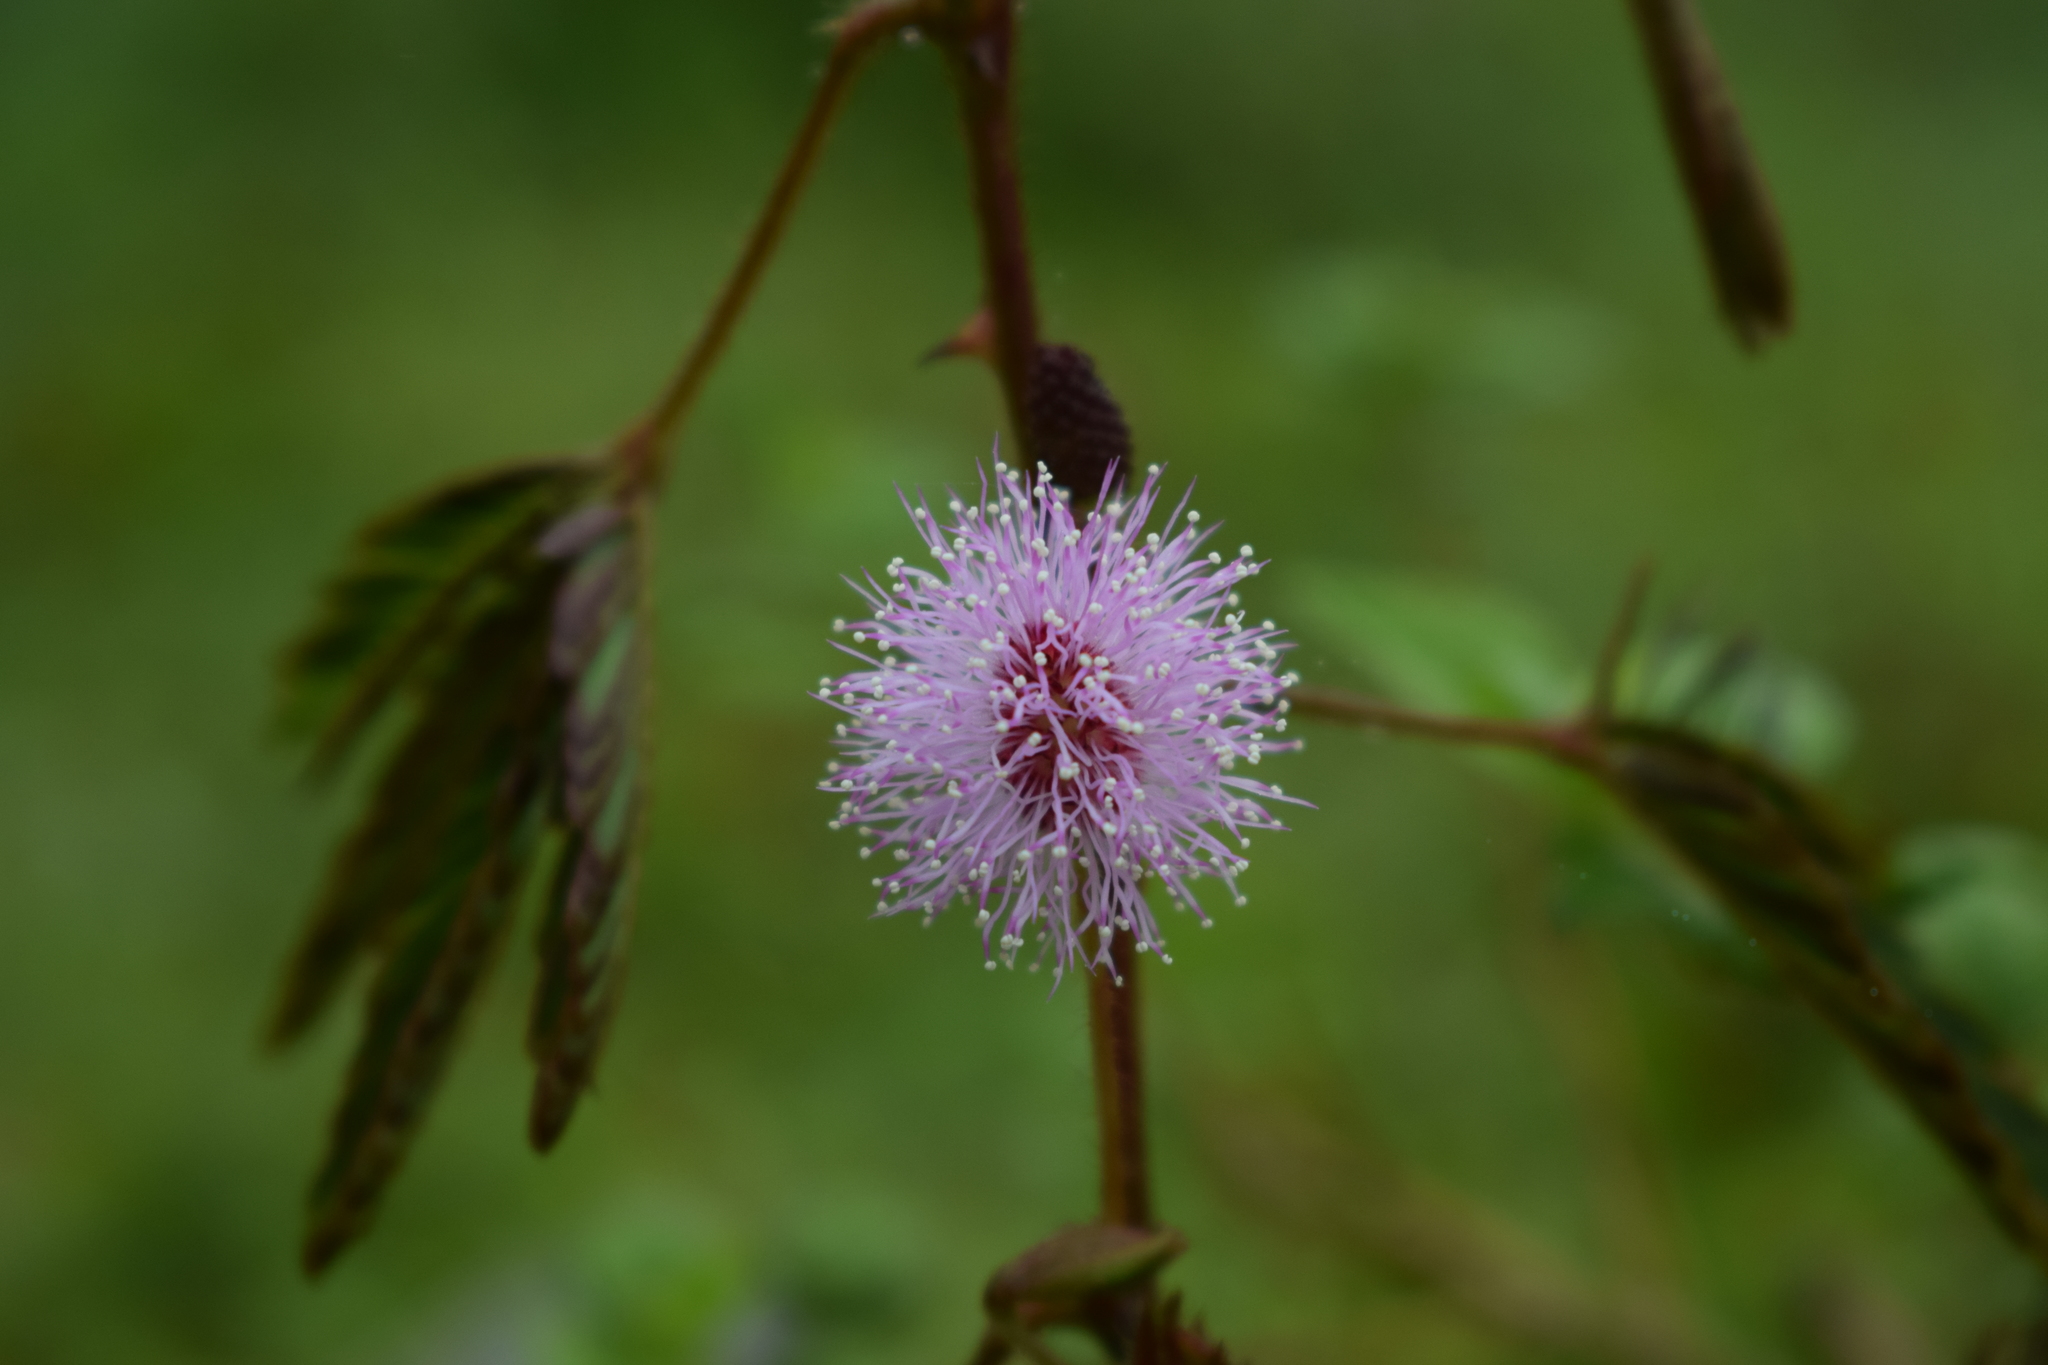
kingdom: Plantae
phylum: Tracheophyta
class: Magnoliopsida
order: Fabales
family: Fabaceae
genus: Mimosa
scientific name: Mimosa pudica
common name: Sensitive plant
